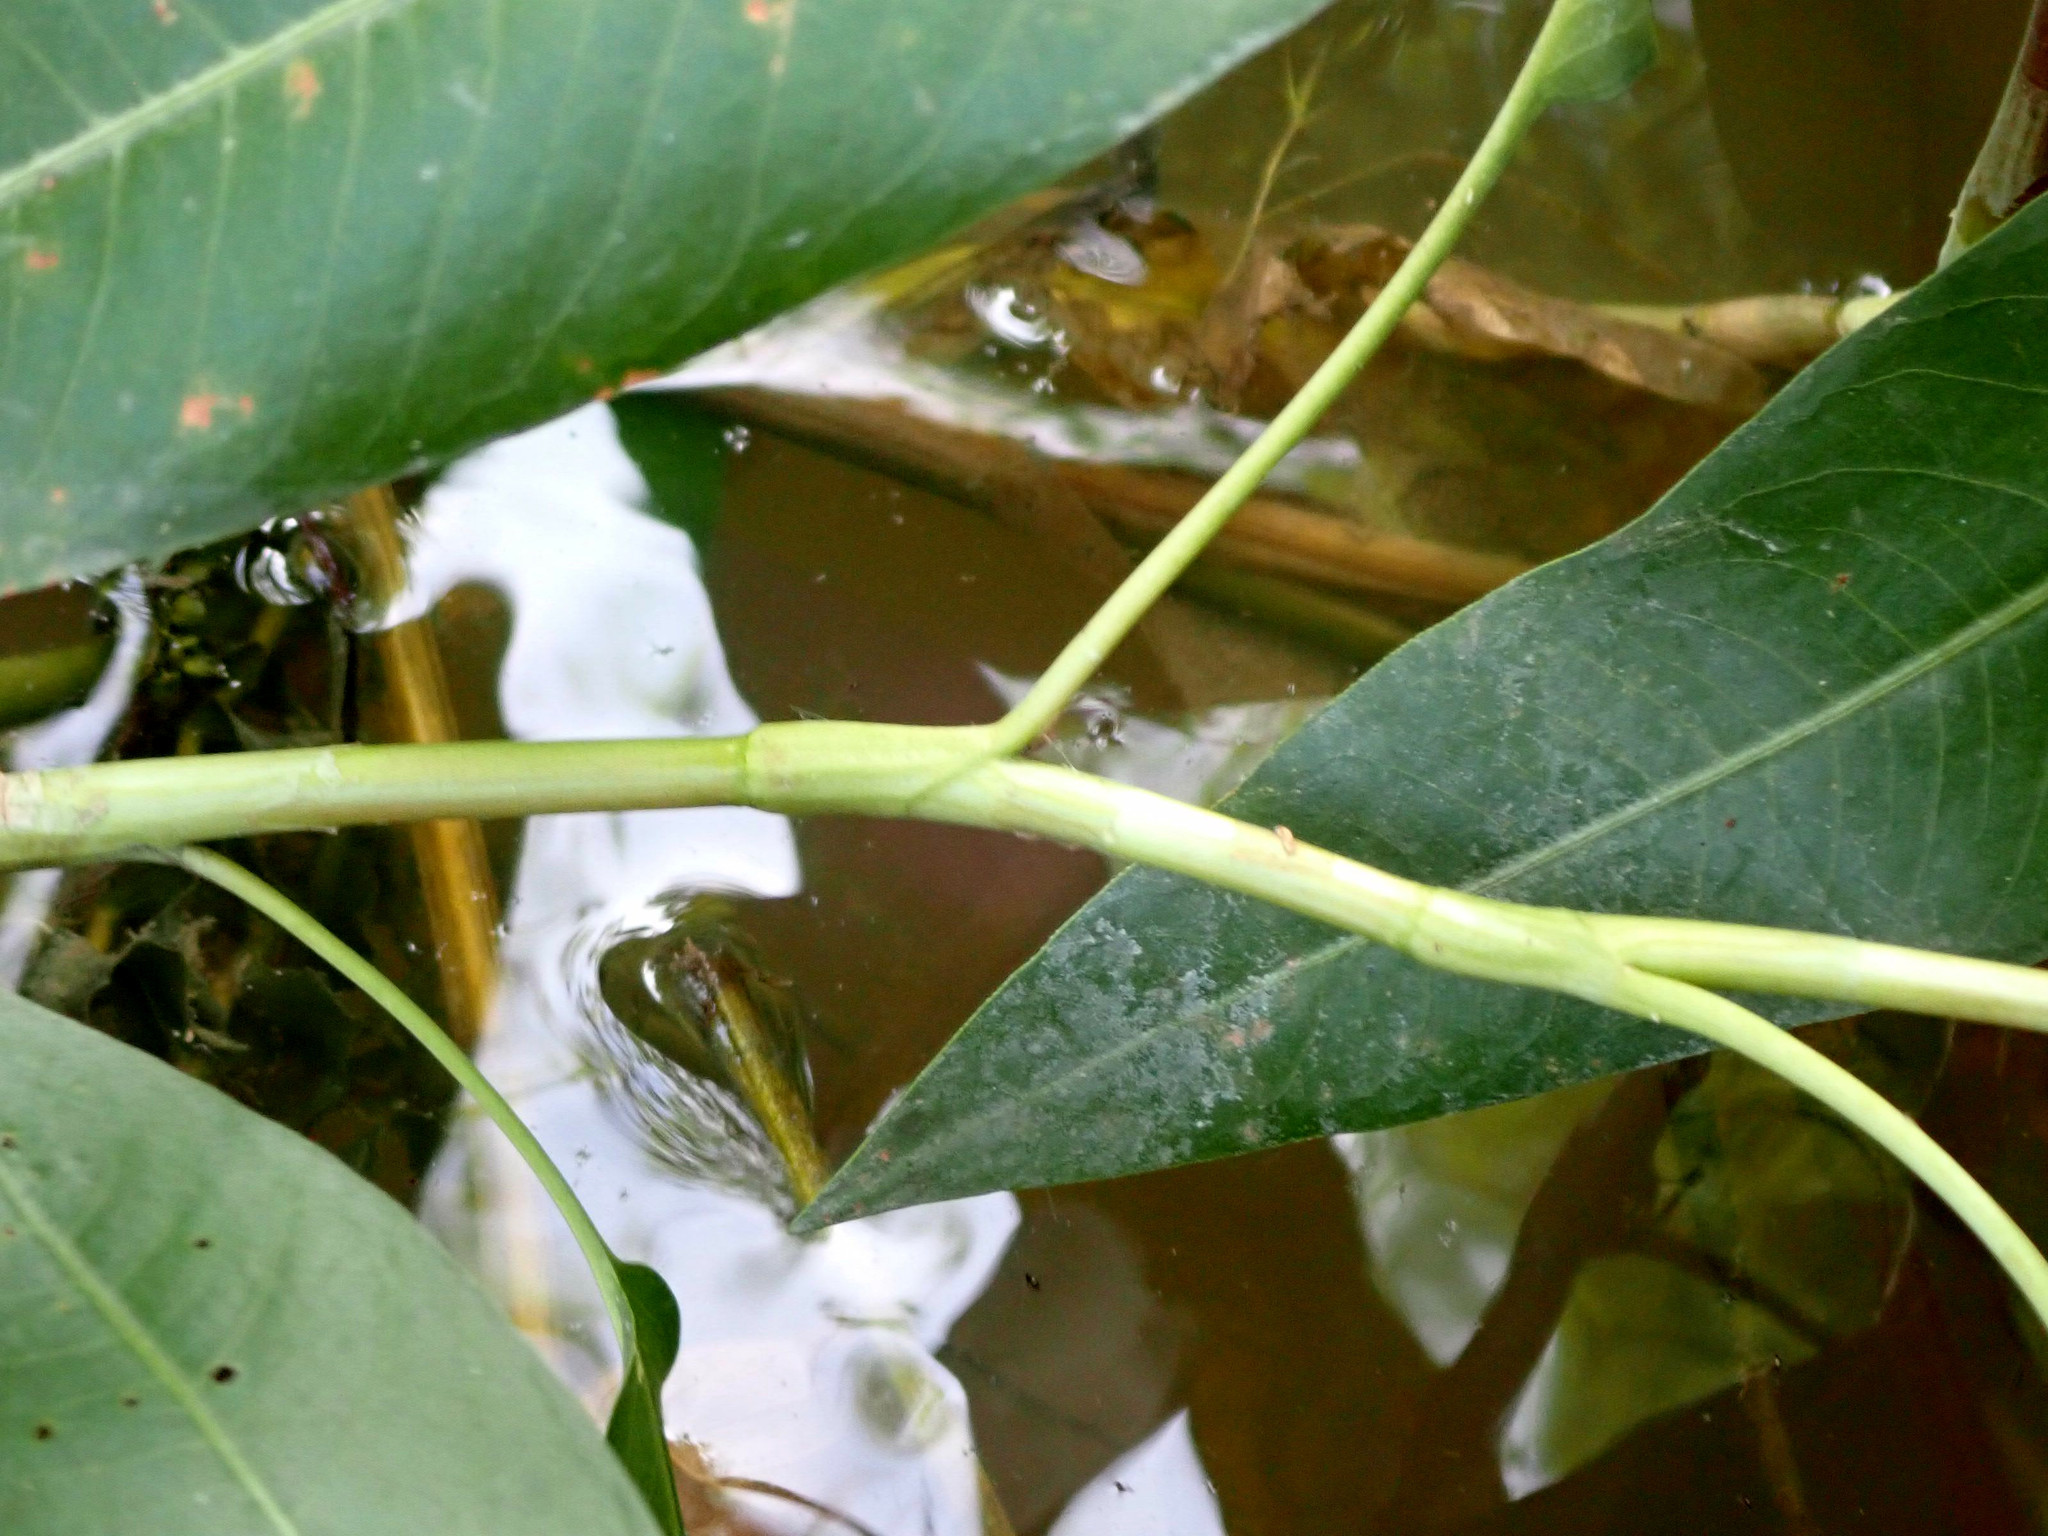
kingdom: Plantae
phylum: Tracheophyta
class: Magnoliopsida
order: Caryophyllales
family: Polygonaceae
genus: Persicaria
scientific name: Persicaria amphibia
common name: Amphibious bistort
